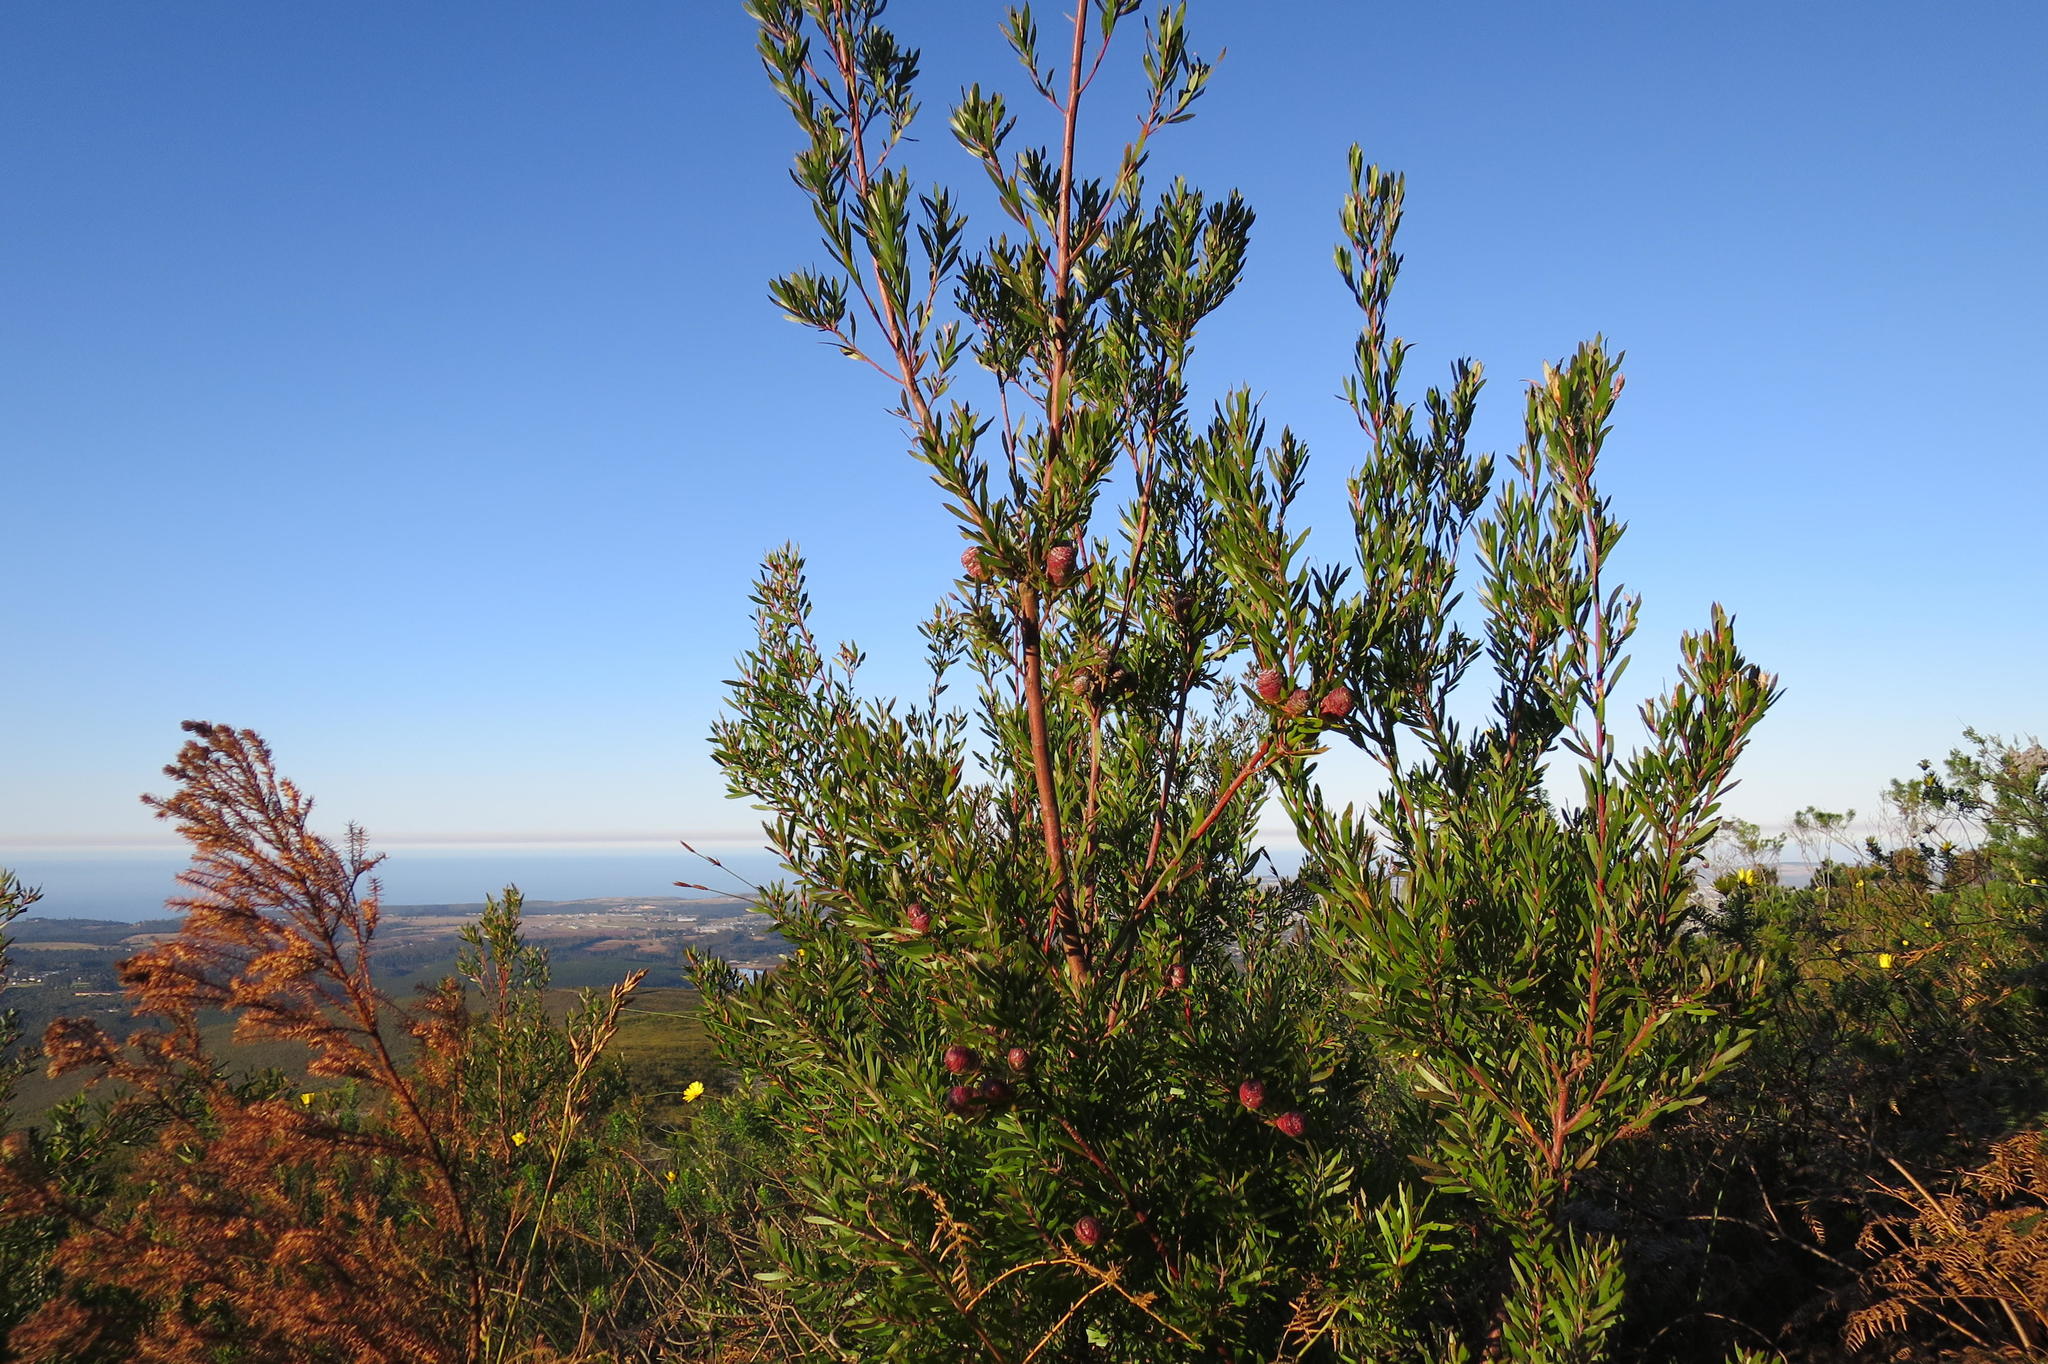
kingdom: Plantae
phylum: Tracheophyta
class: Magnoliopsida
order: Proteales
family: Proteaceae
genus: Leucadendron
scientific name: Leucadendron conicum
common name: Garden route conebush
